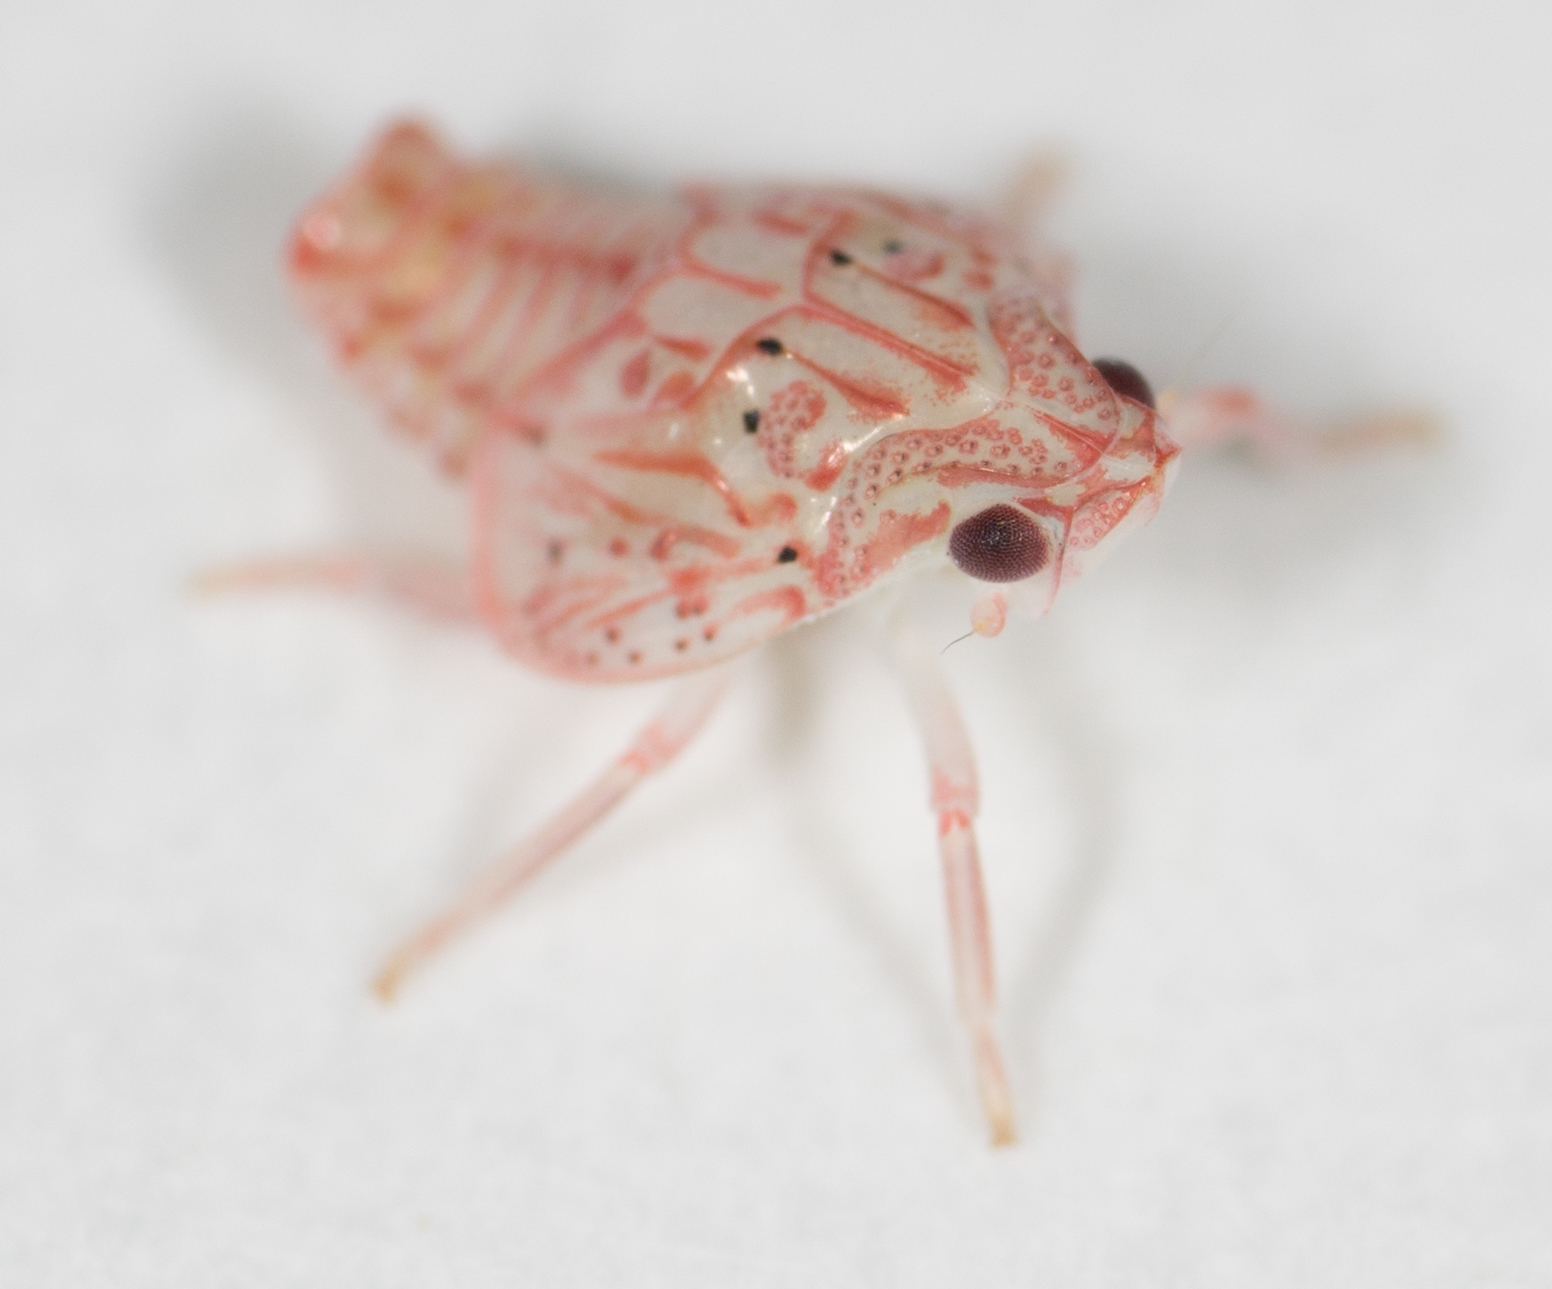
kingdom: Animalia
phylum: Arthropoda
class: Insecta
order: Hemiptera
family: Flatidae
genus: Siphanta
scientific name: Siphanta acuta
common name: Torpedo bug
